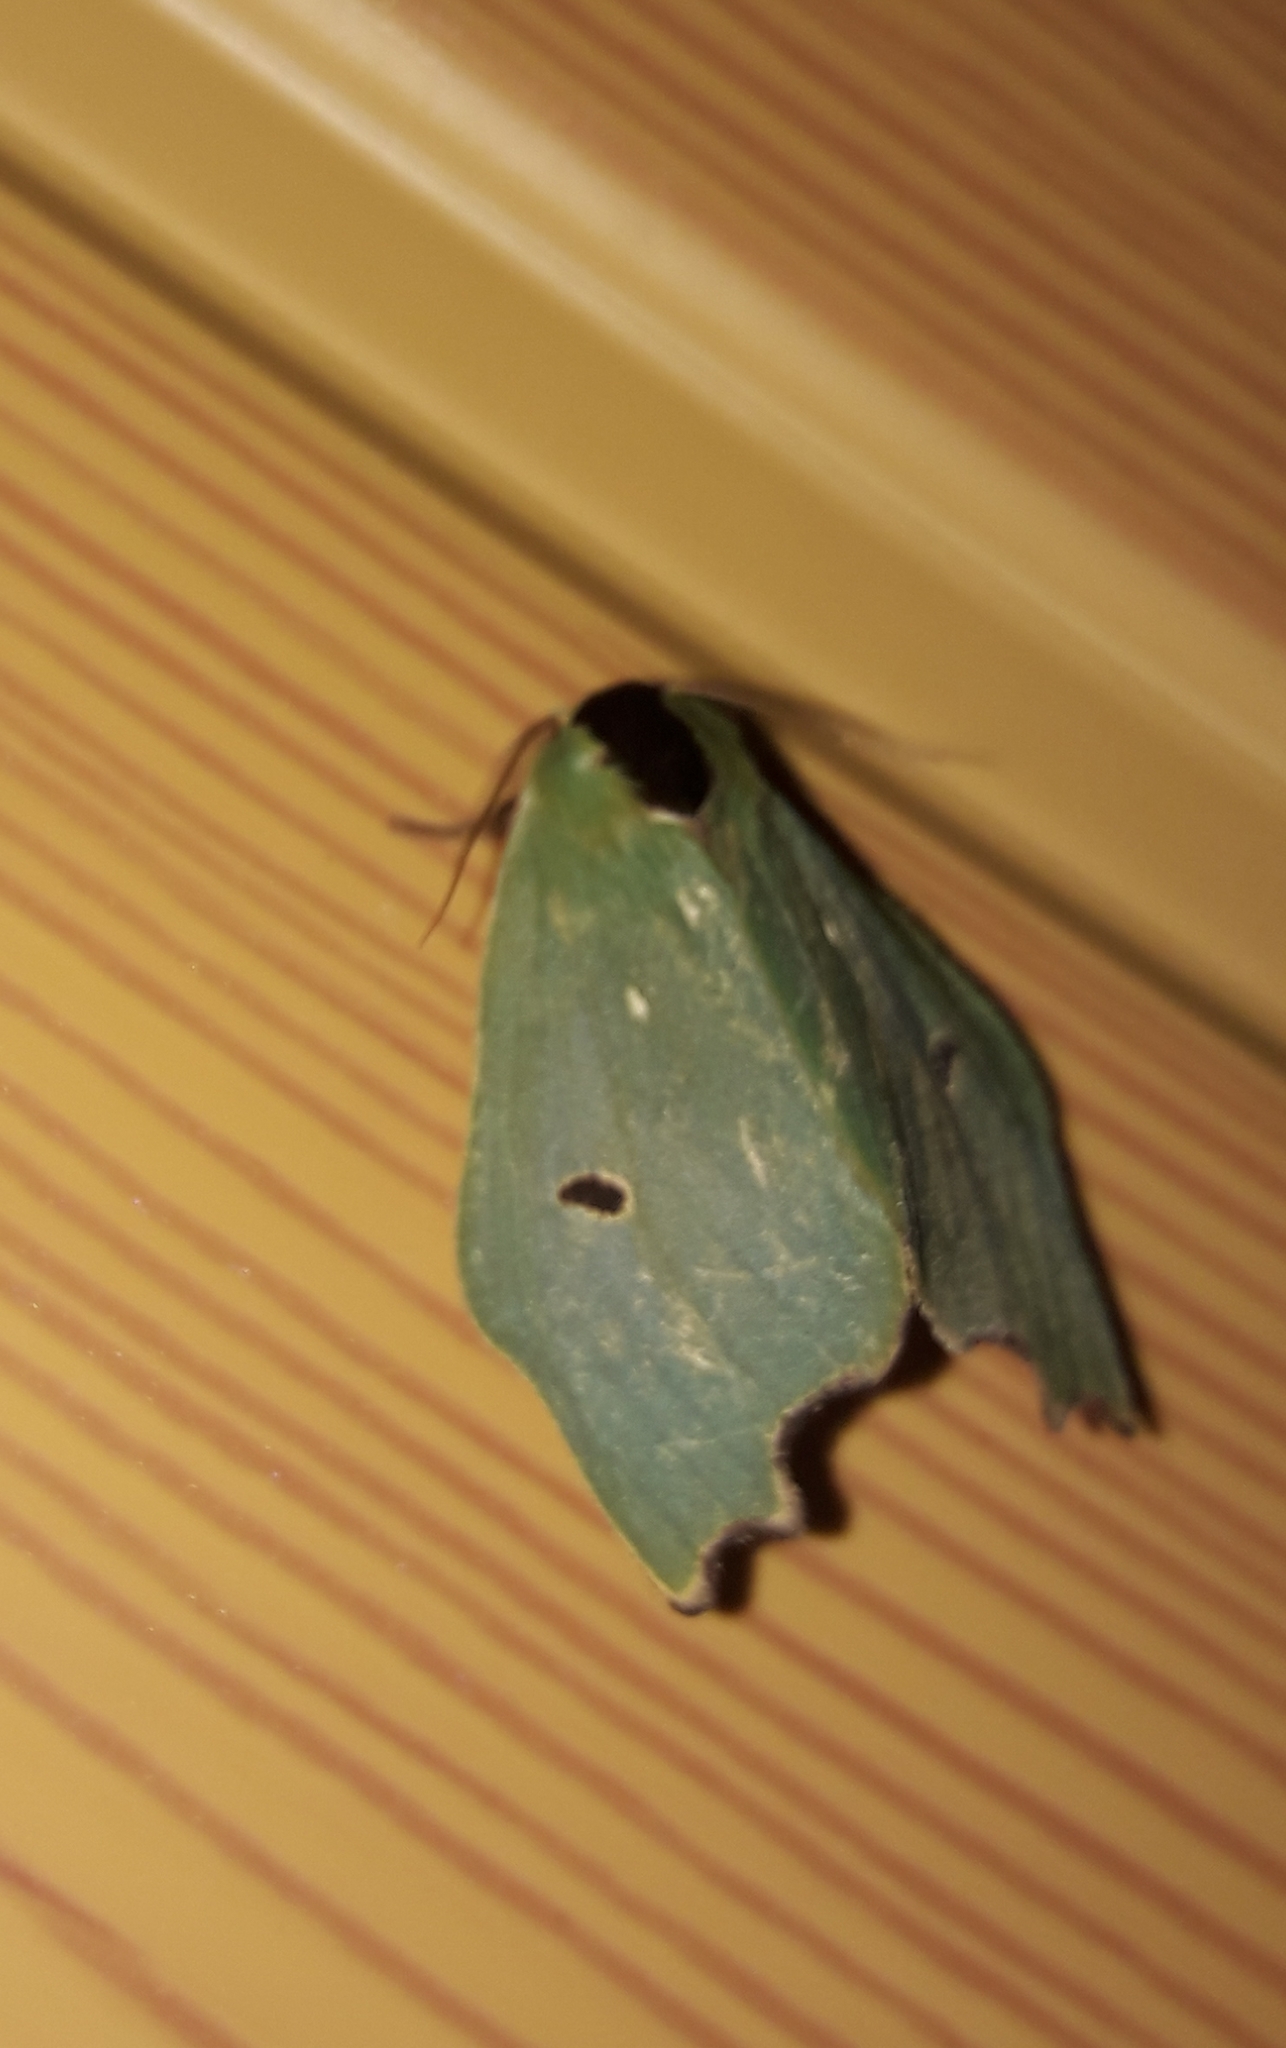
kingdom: Animalia
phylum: Arthropoda
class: Insecta
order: Lepidoptera
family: Notodontidae
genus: Rosema
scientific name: Rosema deolis
